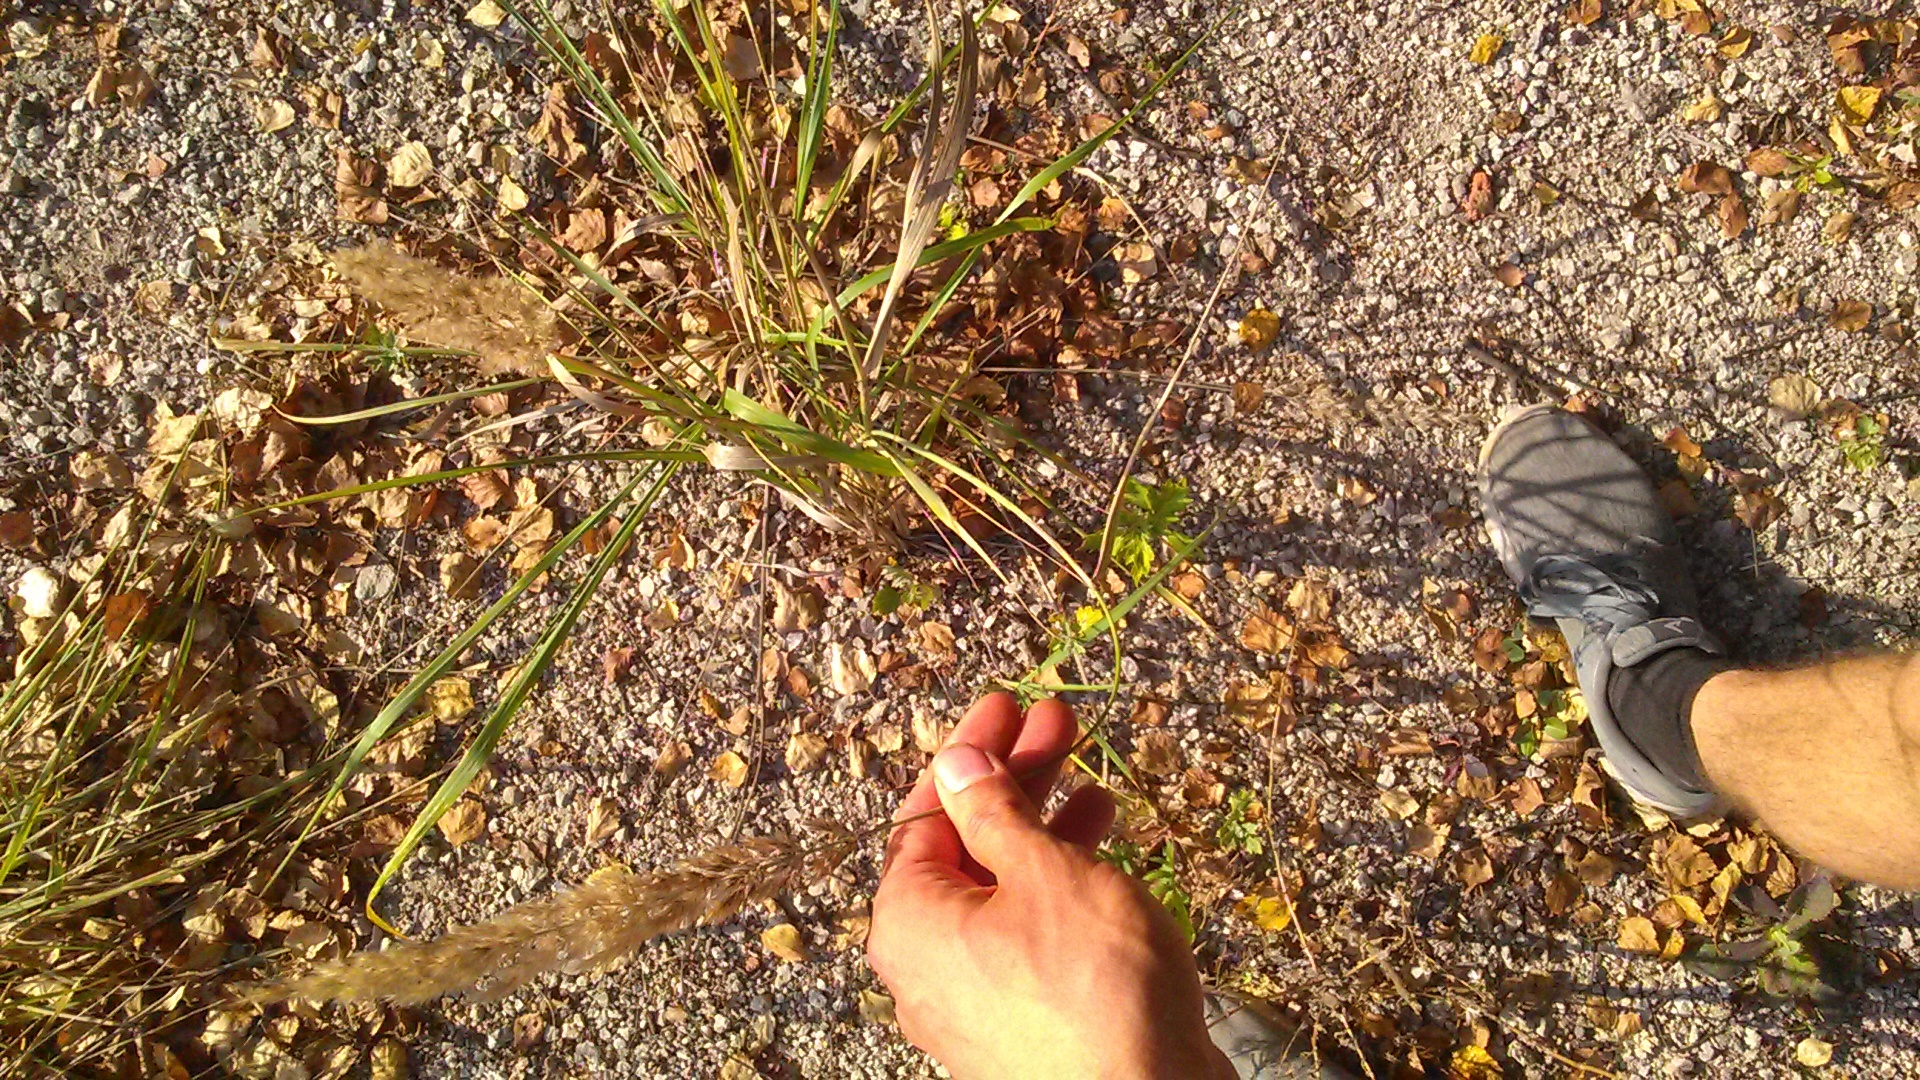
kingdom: Plantae
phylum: Tracheophyta
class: Liliopsida
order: Poales
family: Poaceae
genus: Calamagrostis
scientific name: Calamagrostis epigejos
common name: Wood small-reed
